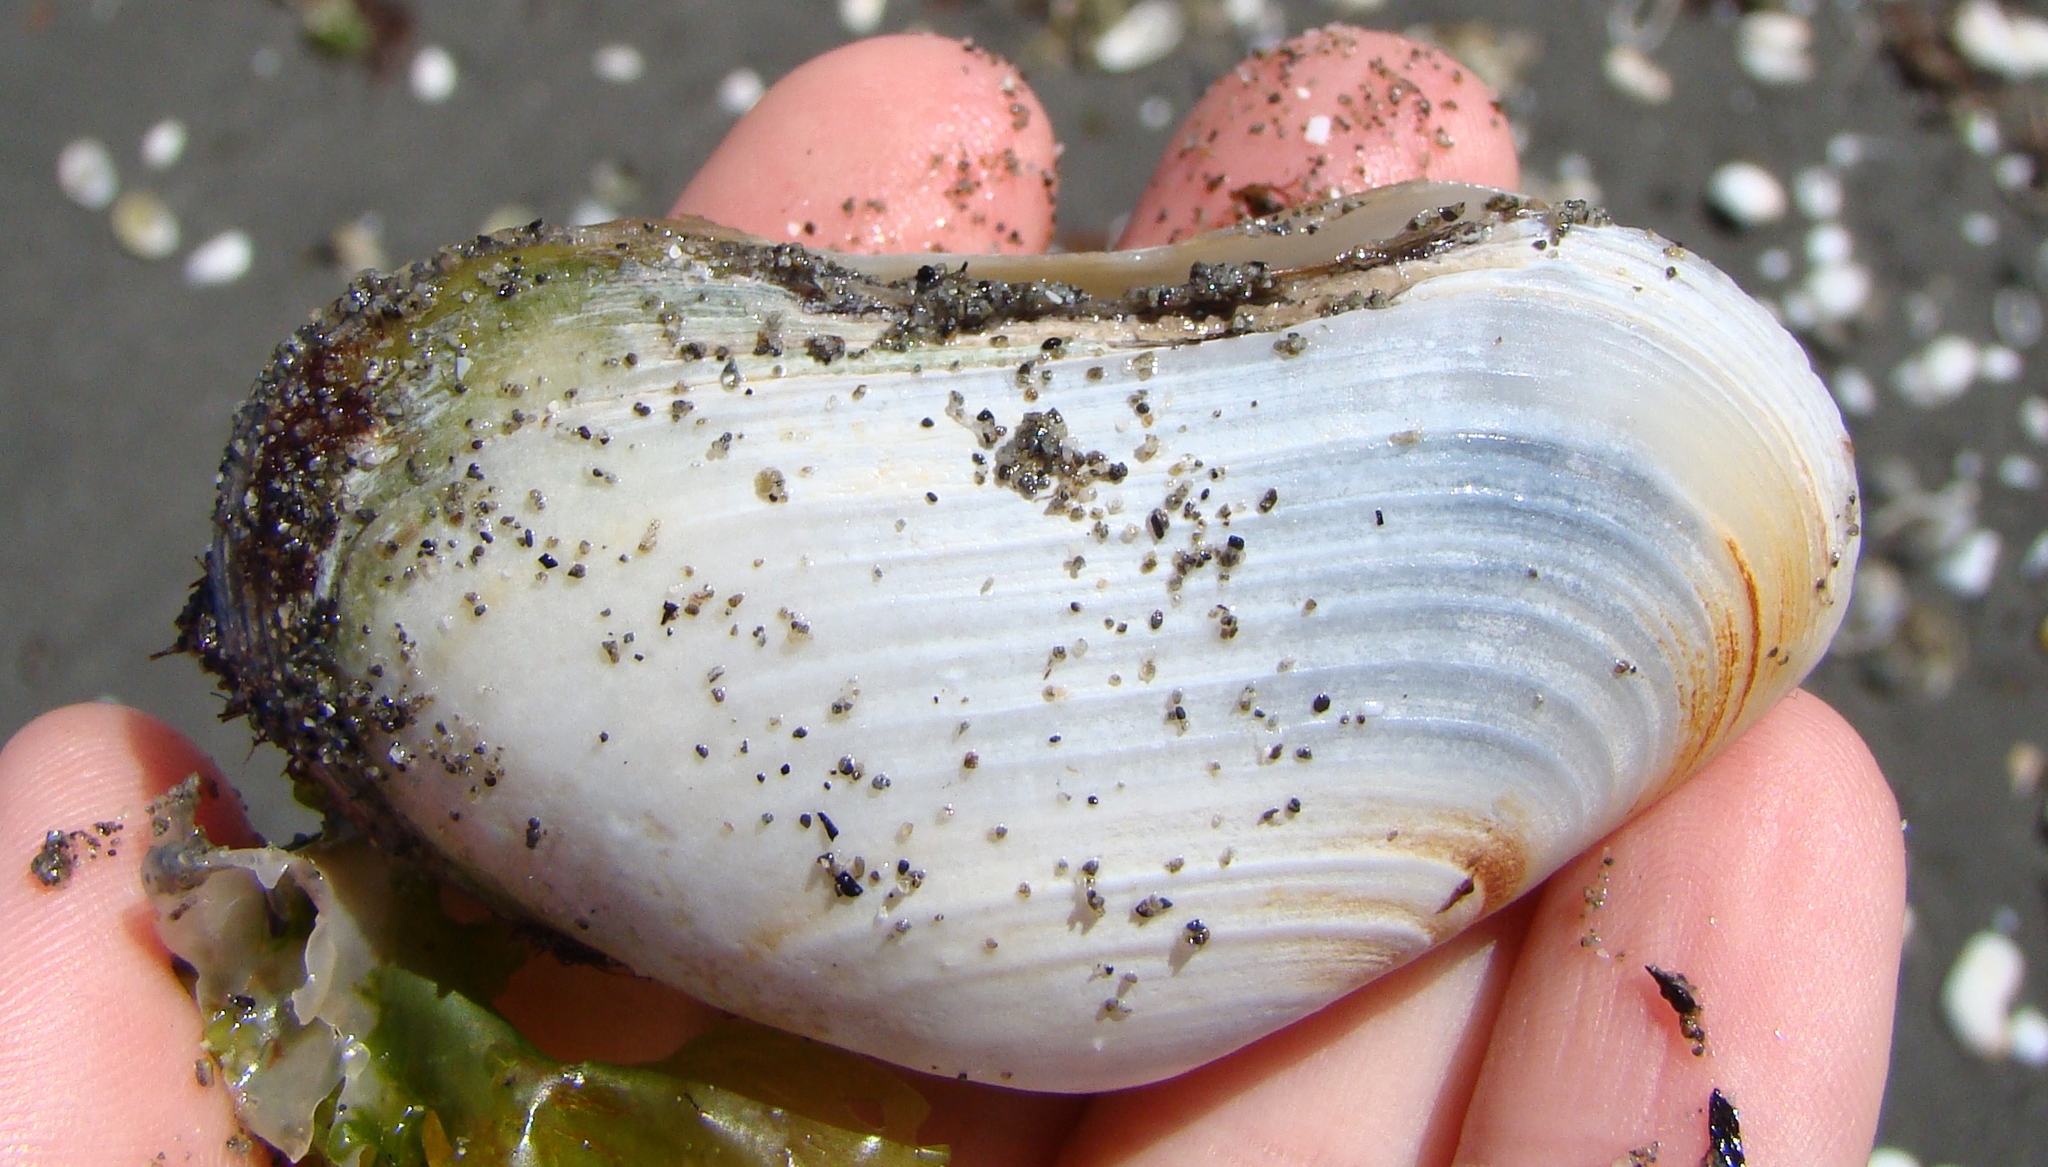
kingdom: Animalia
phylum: Mollusca
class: Bivalvia
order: Venerida
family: Mesodesmatidae
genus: Paphies
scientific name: Paphies australis
